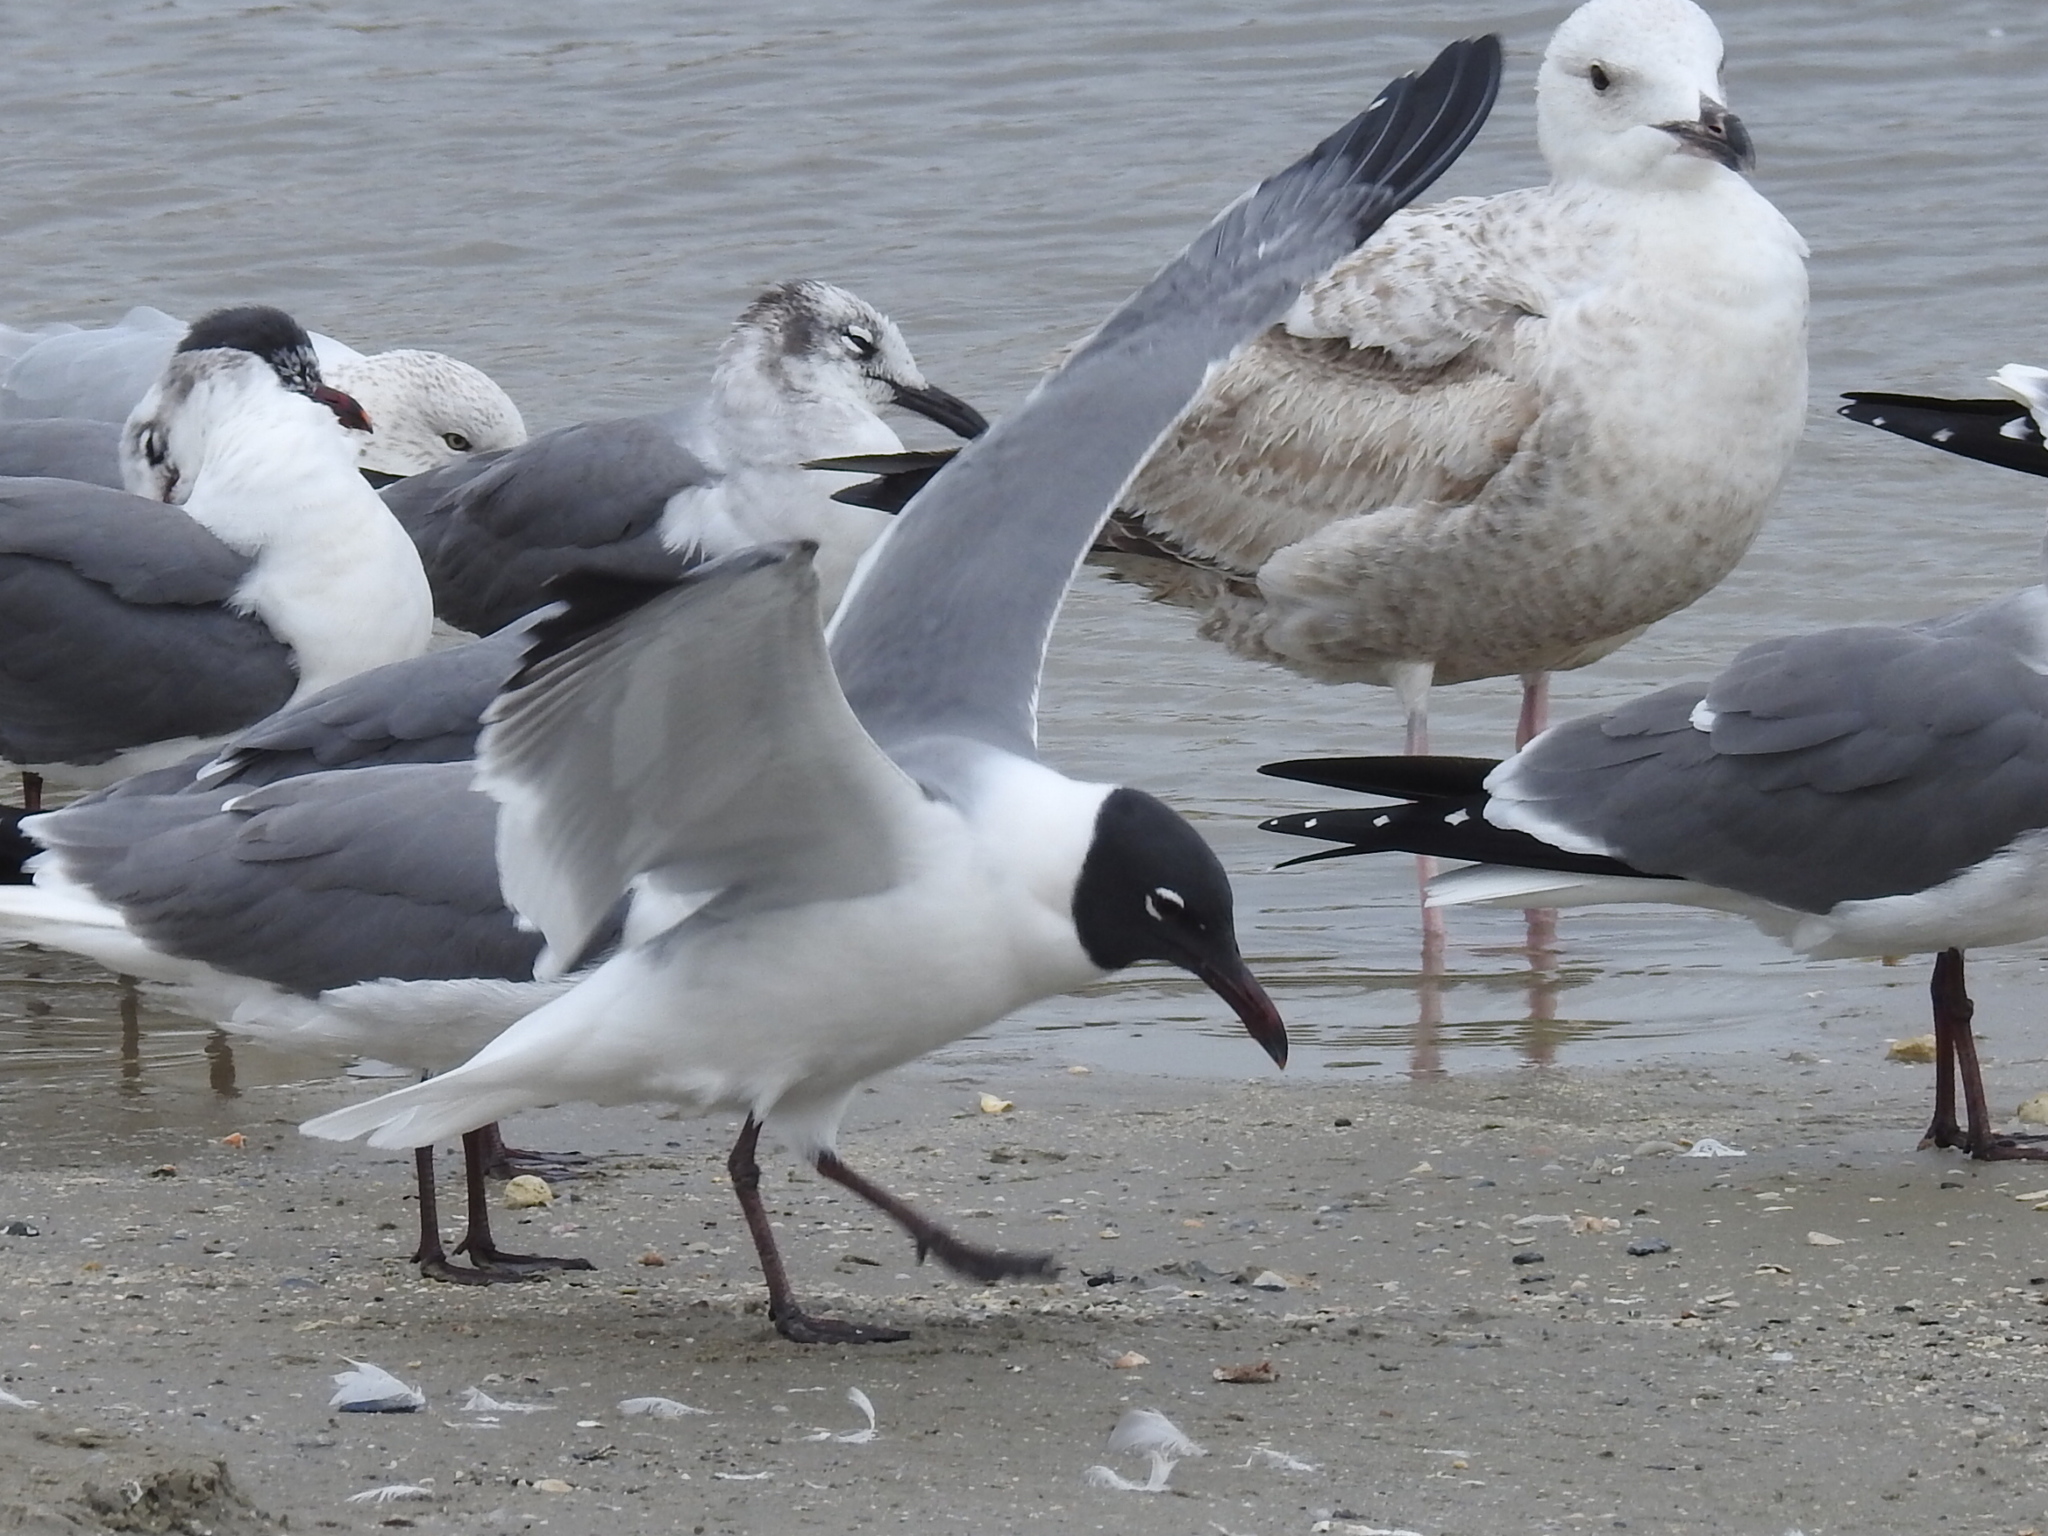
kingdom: Animalia
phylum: Chordata
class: Aves
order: Charadriiformes
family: Laridae
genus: Leucophaeus
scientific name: Leucophaeus atricilla
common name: Laughing gull
